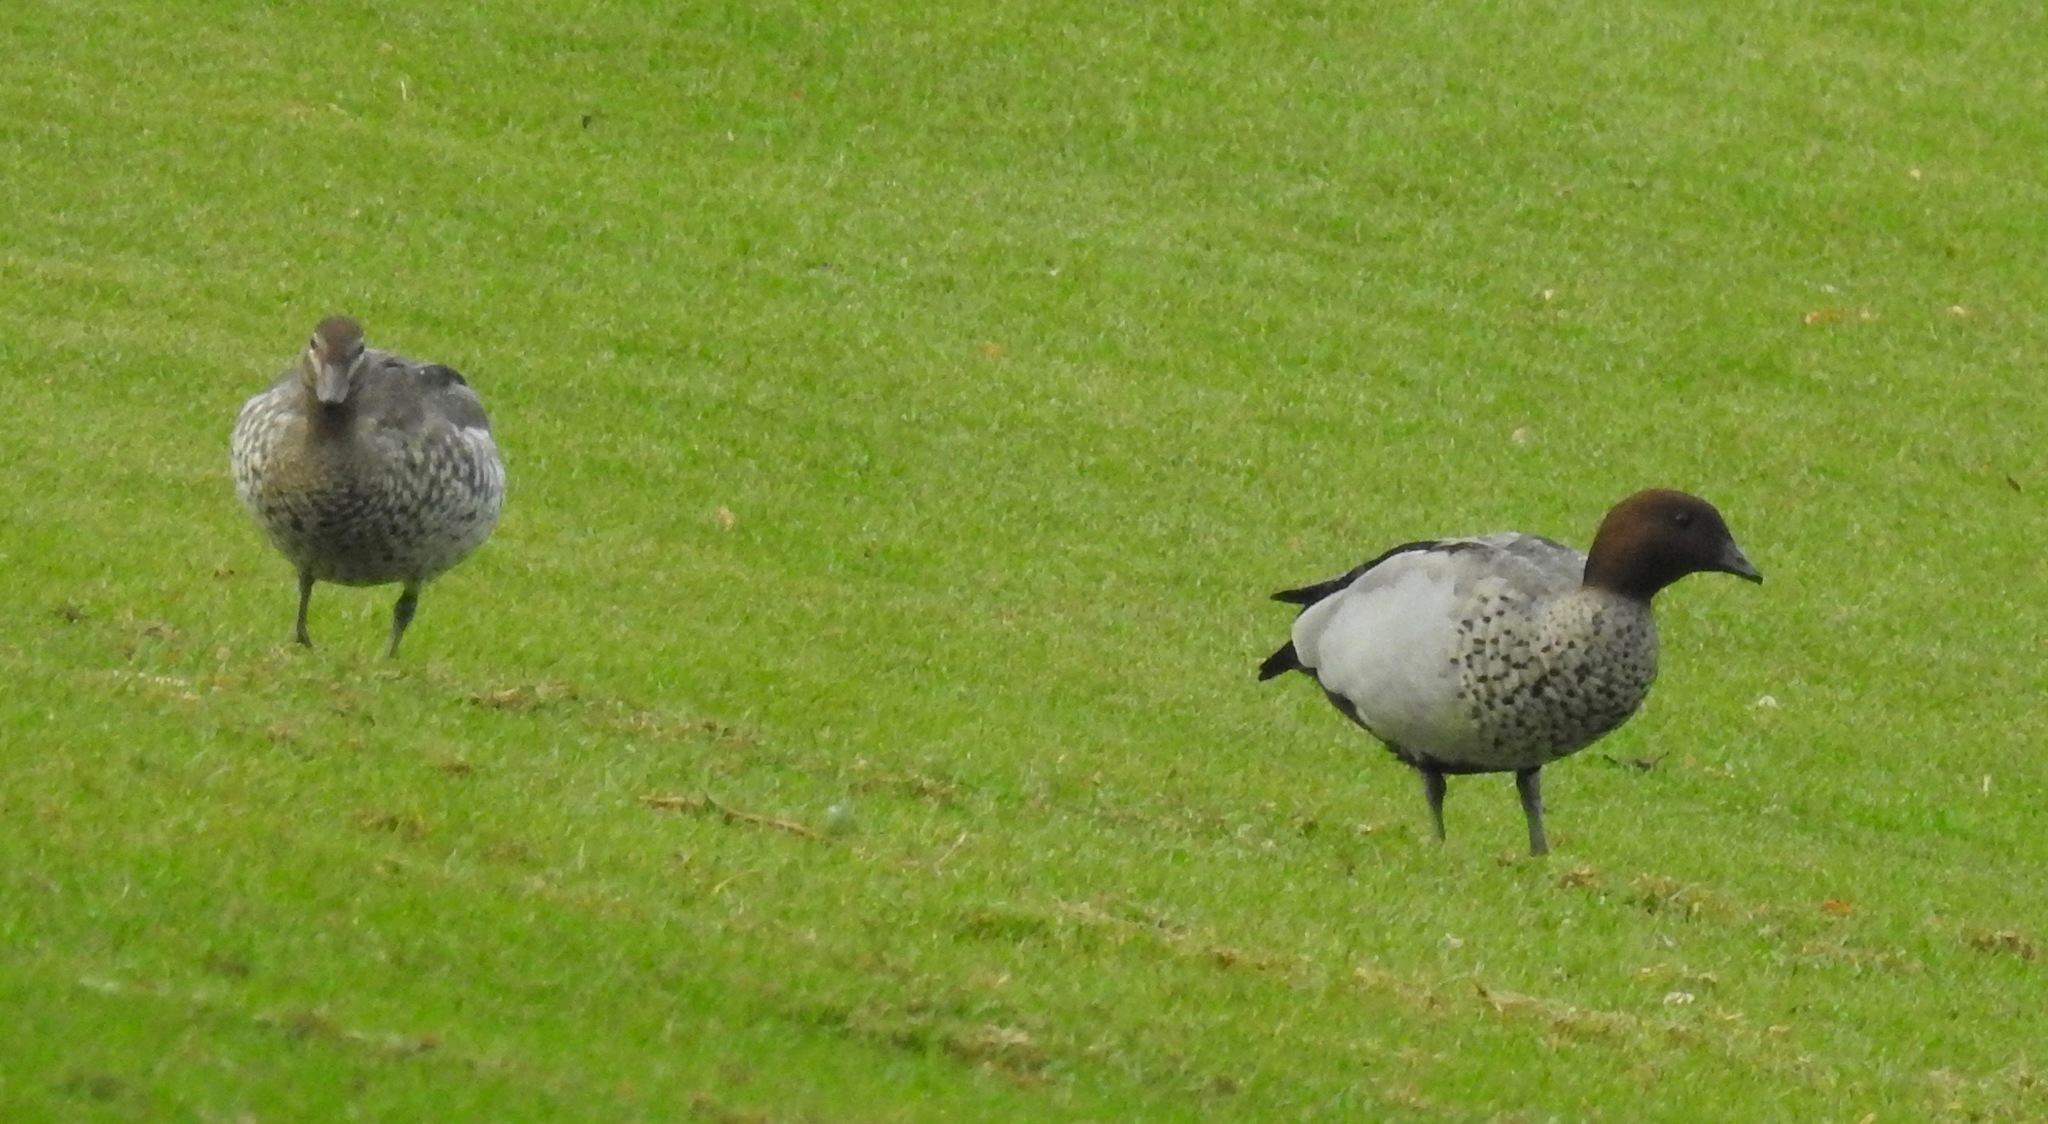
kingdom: Animalia
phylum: Chordata
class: Aves
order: Anseriformes
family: Anatidae
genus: Chenonetta
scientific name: Chenonetta jubata
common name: Maned duck
